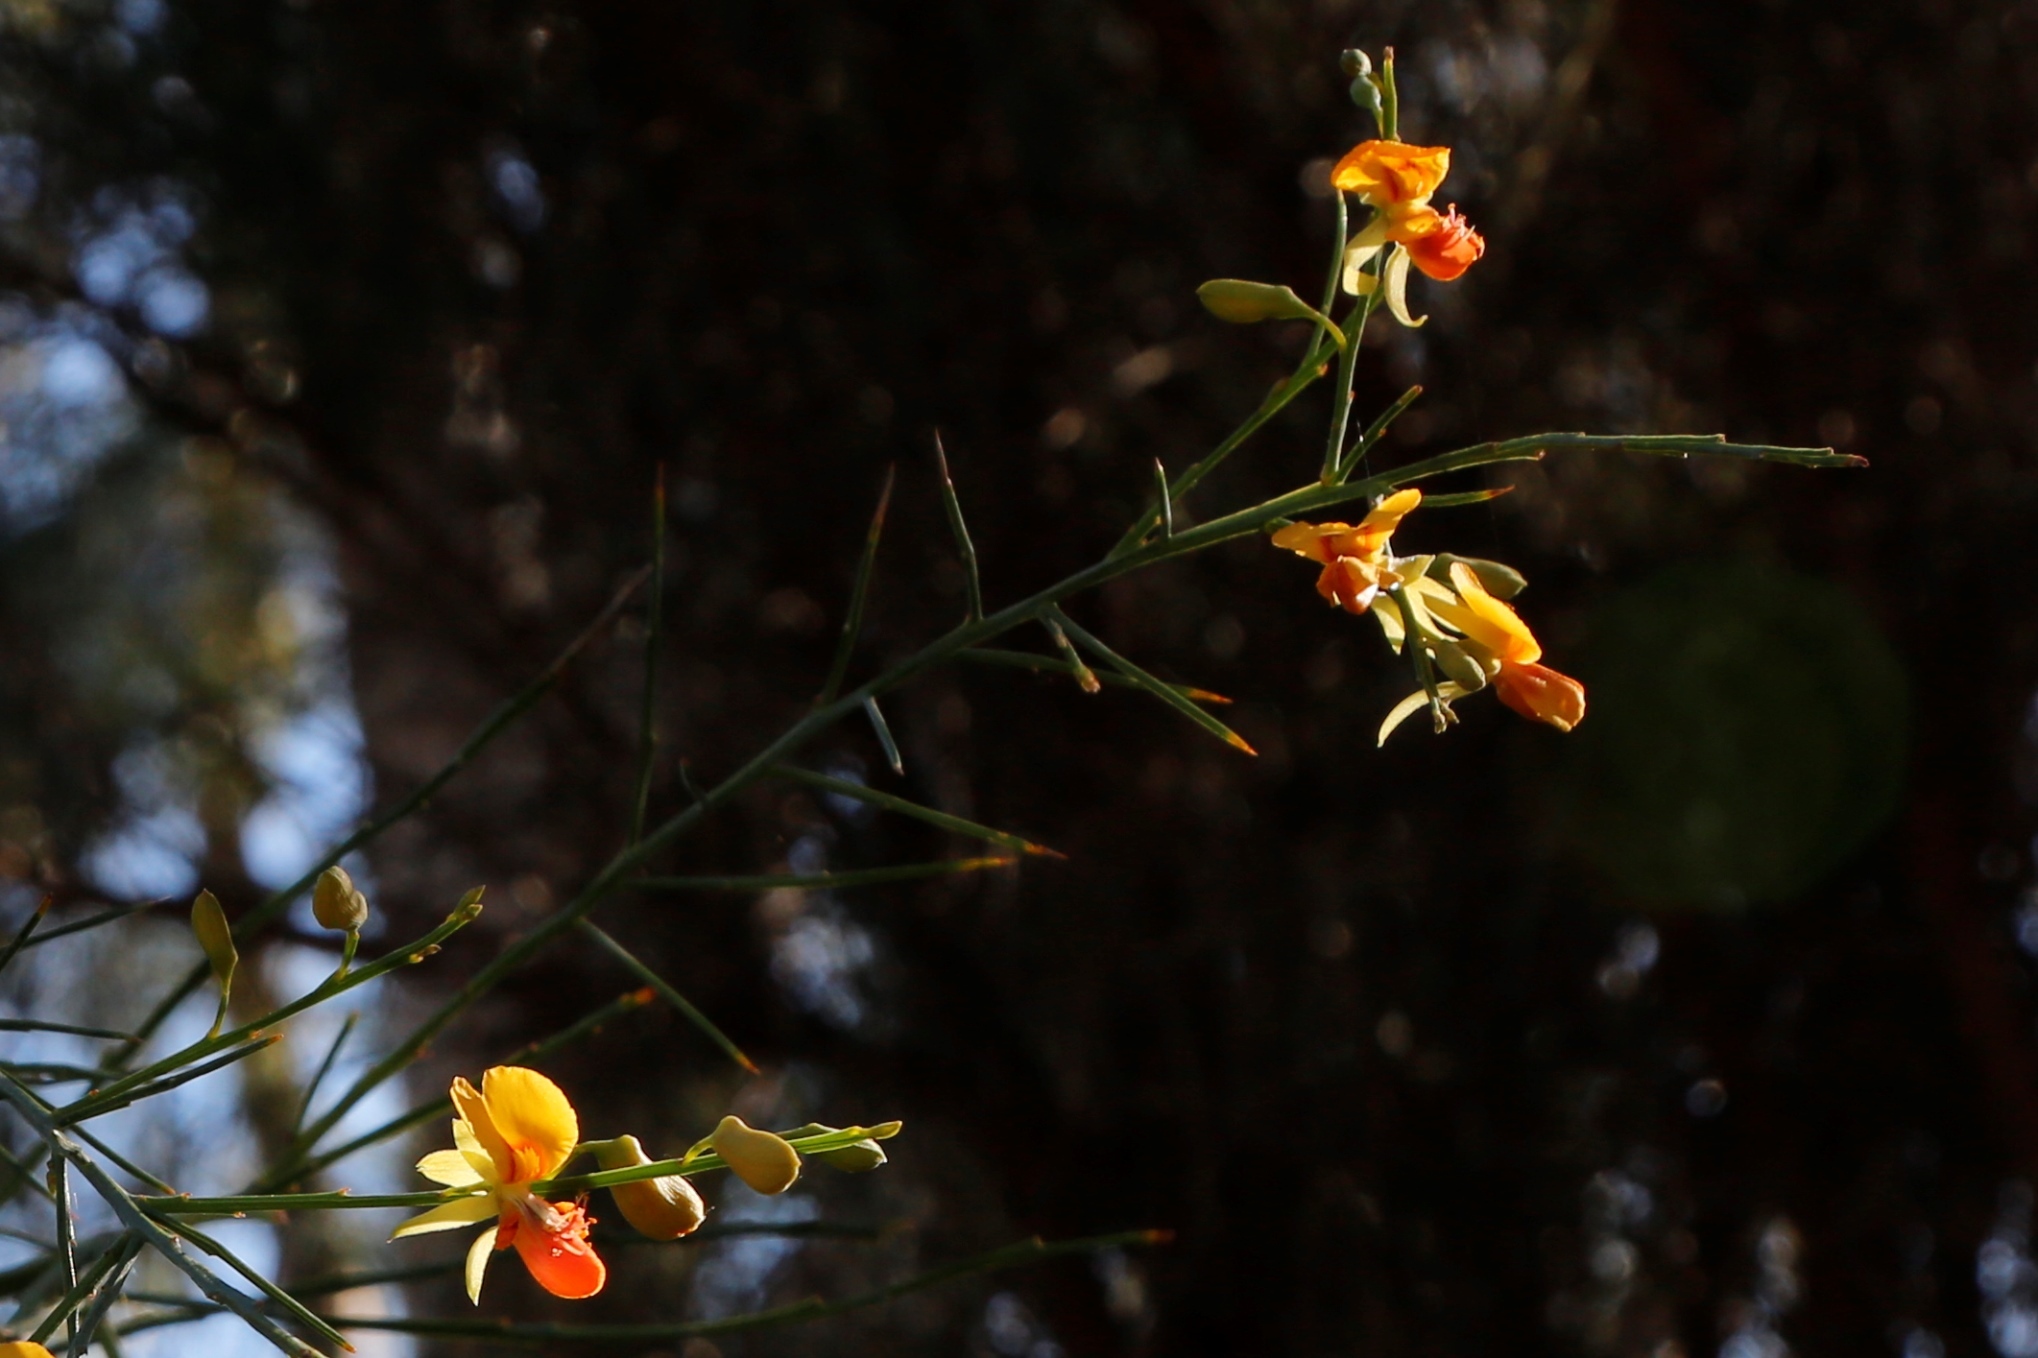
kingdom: Plantae
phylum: Tracheophyta
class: Magnoliopsida
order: Fabales
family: Fabaceae
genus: Jacksonia
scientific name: Jacksonia sternbergiana
